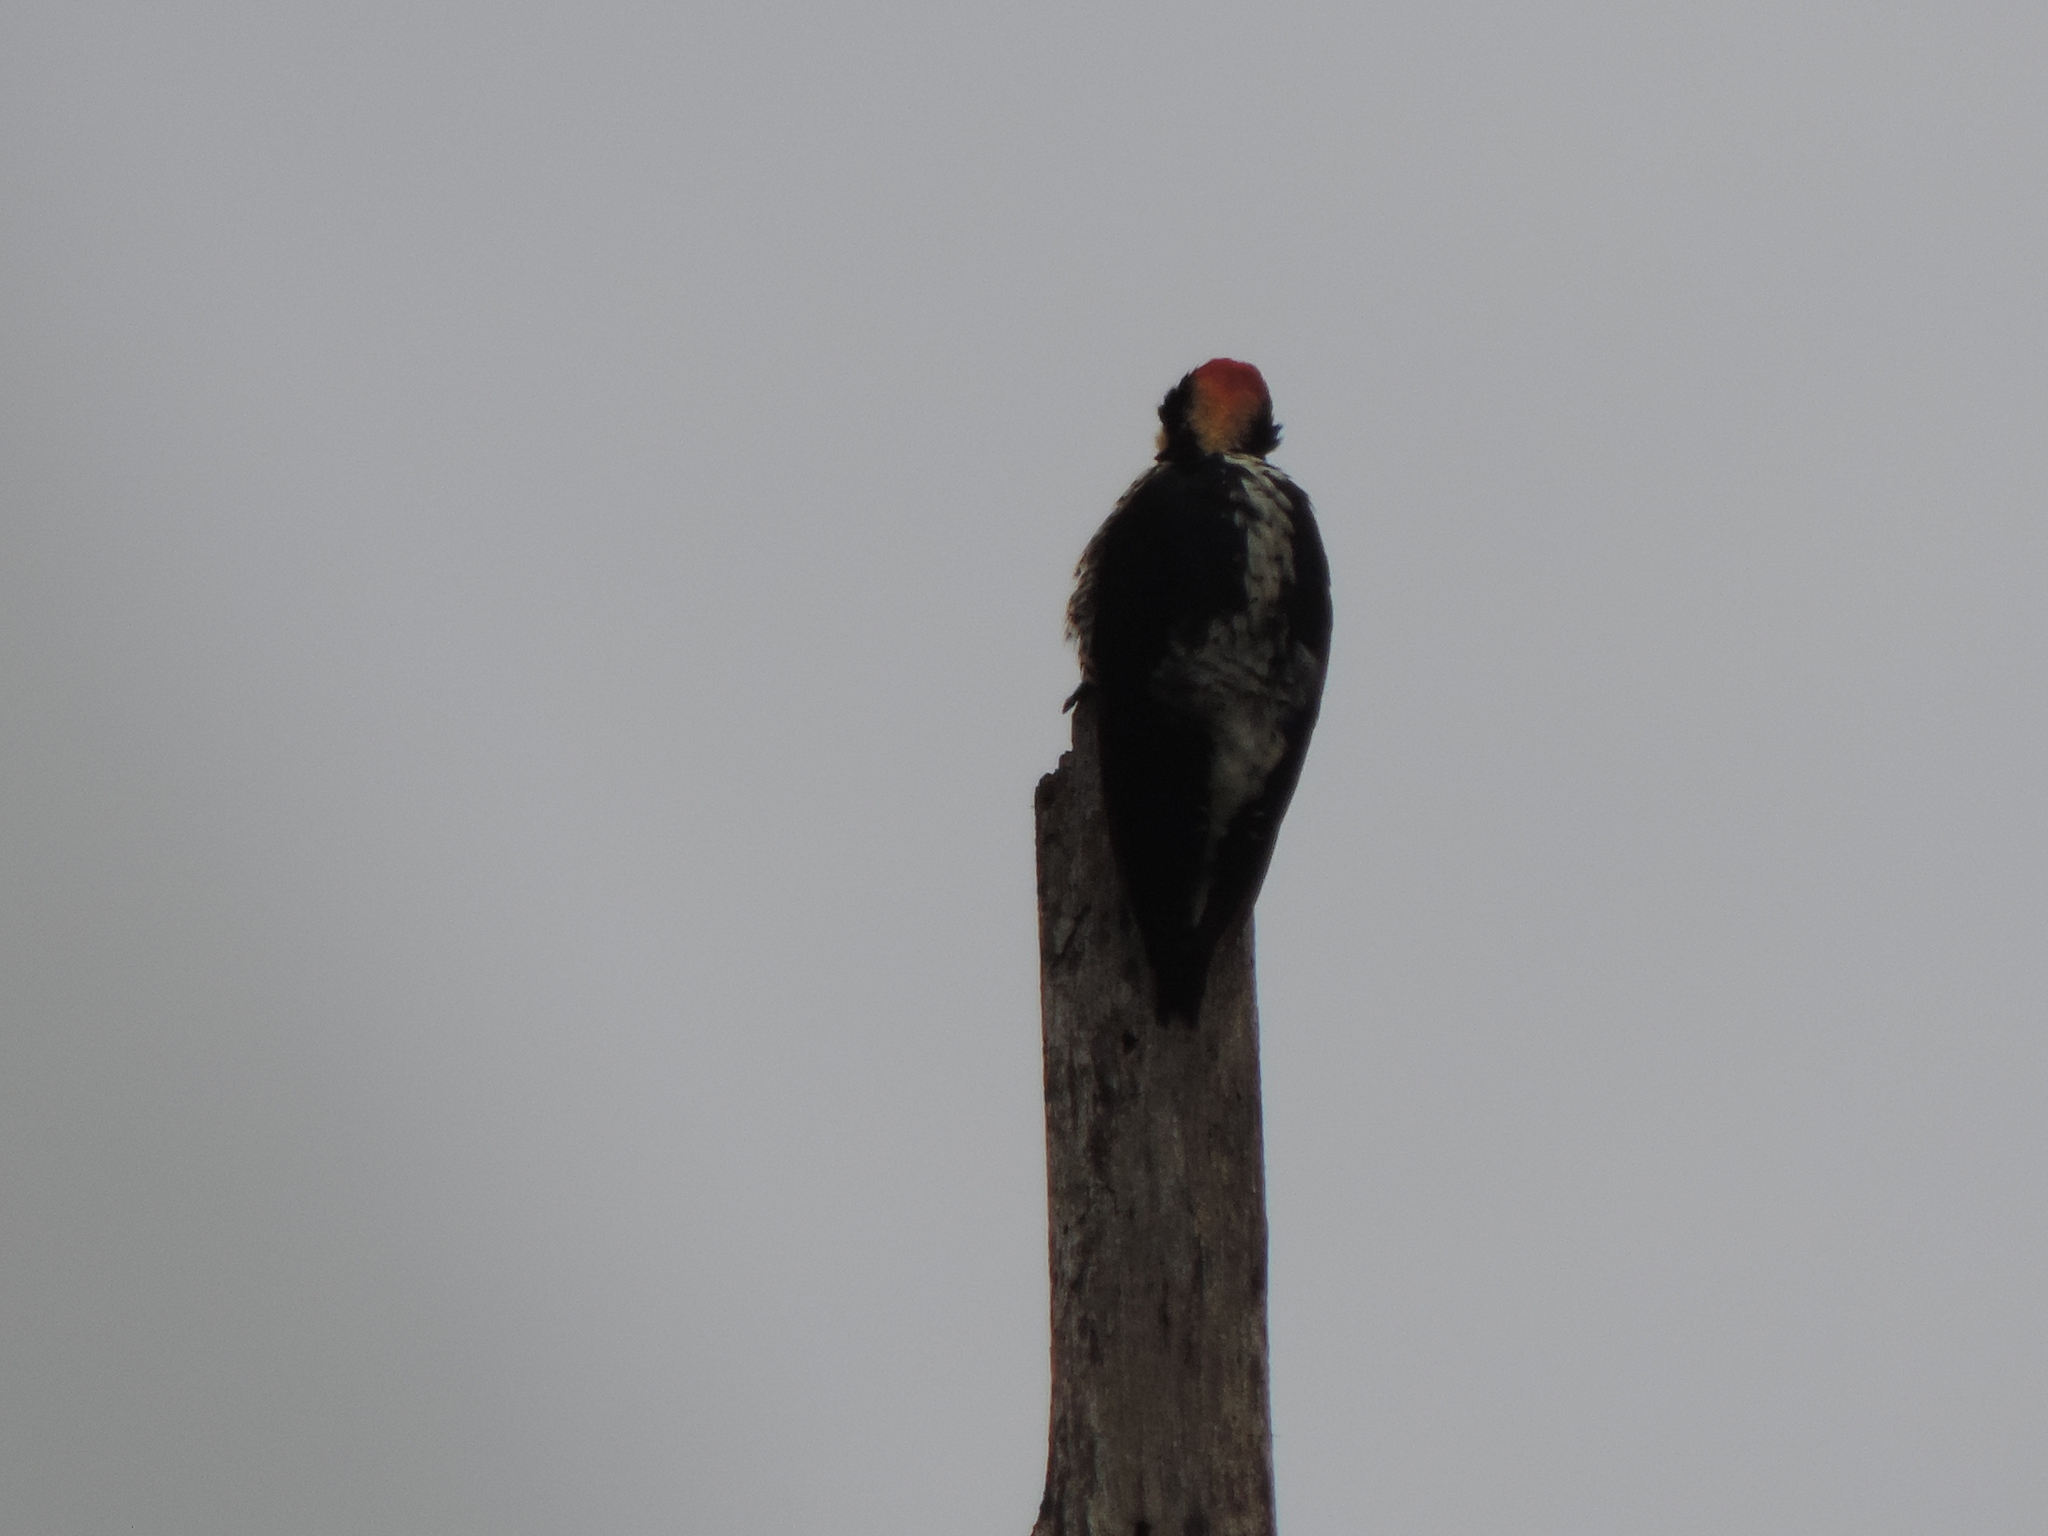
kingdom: Animalia
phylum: Chordata
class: Aves
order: Piciformes
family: Picidae
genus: Melanerpes
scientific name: Melanerpes pulcher
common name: Beautiful woodpecker
